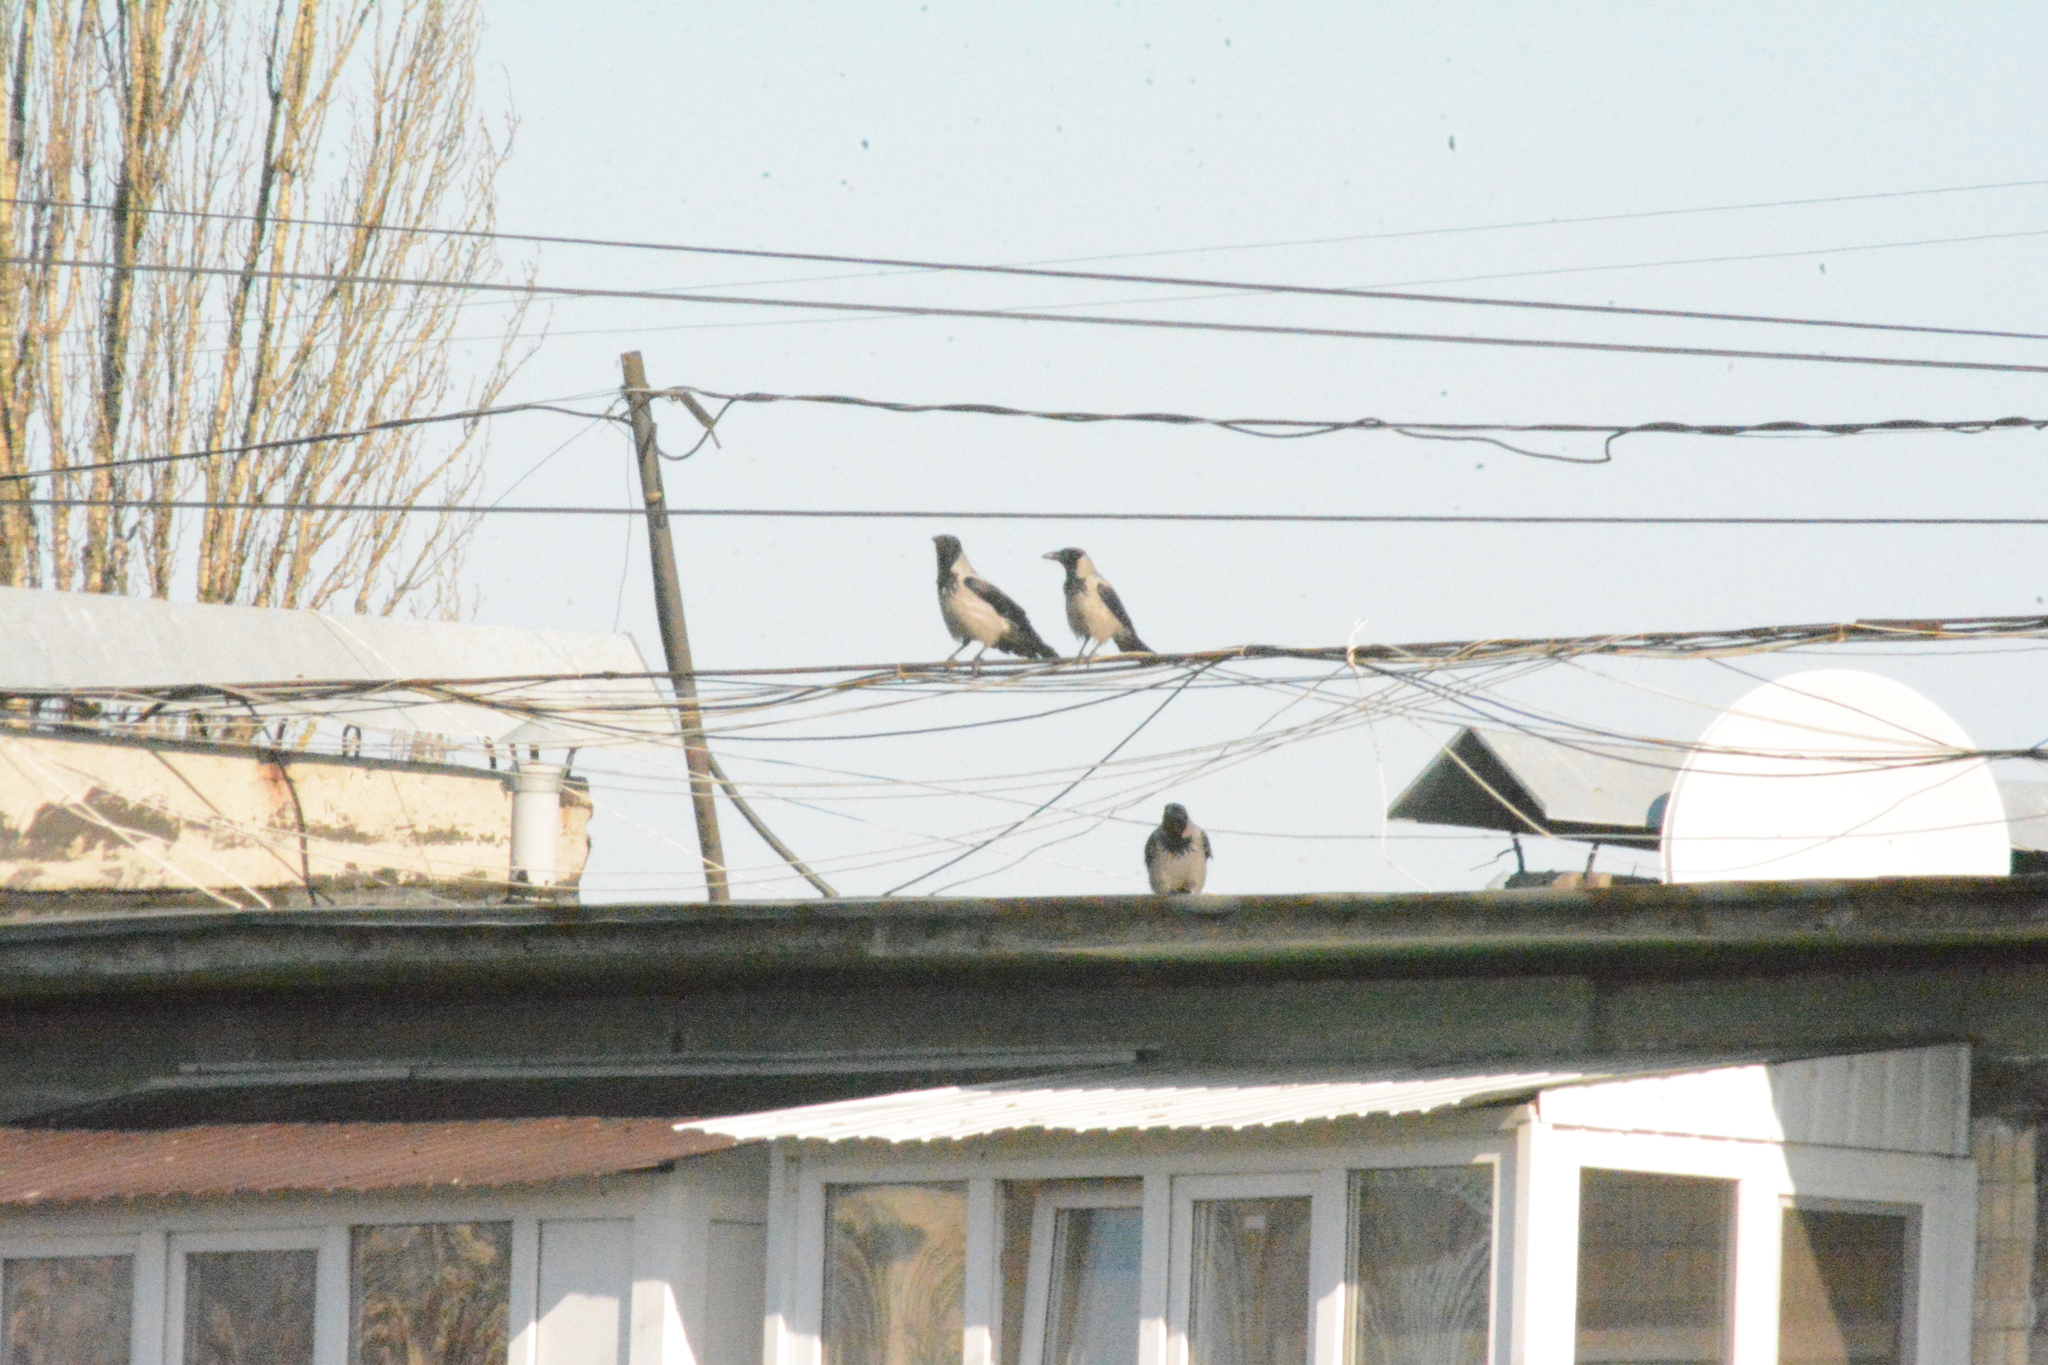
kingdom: Animalia
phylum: Chordata
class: Aves
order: Passeriformes
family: Corvidae
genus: Corvus
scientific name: Corvus cornix
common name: Hooded crow
